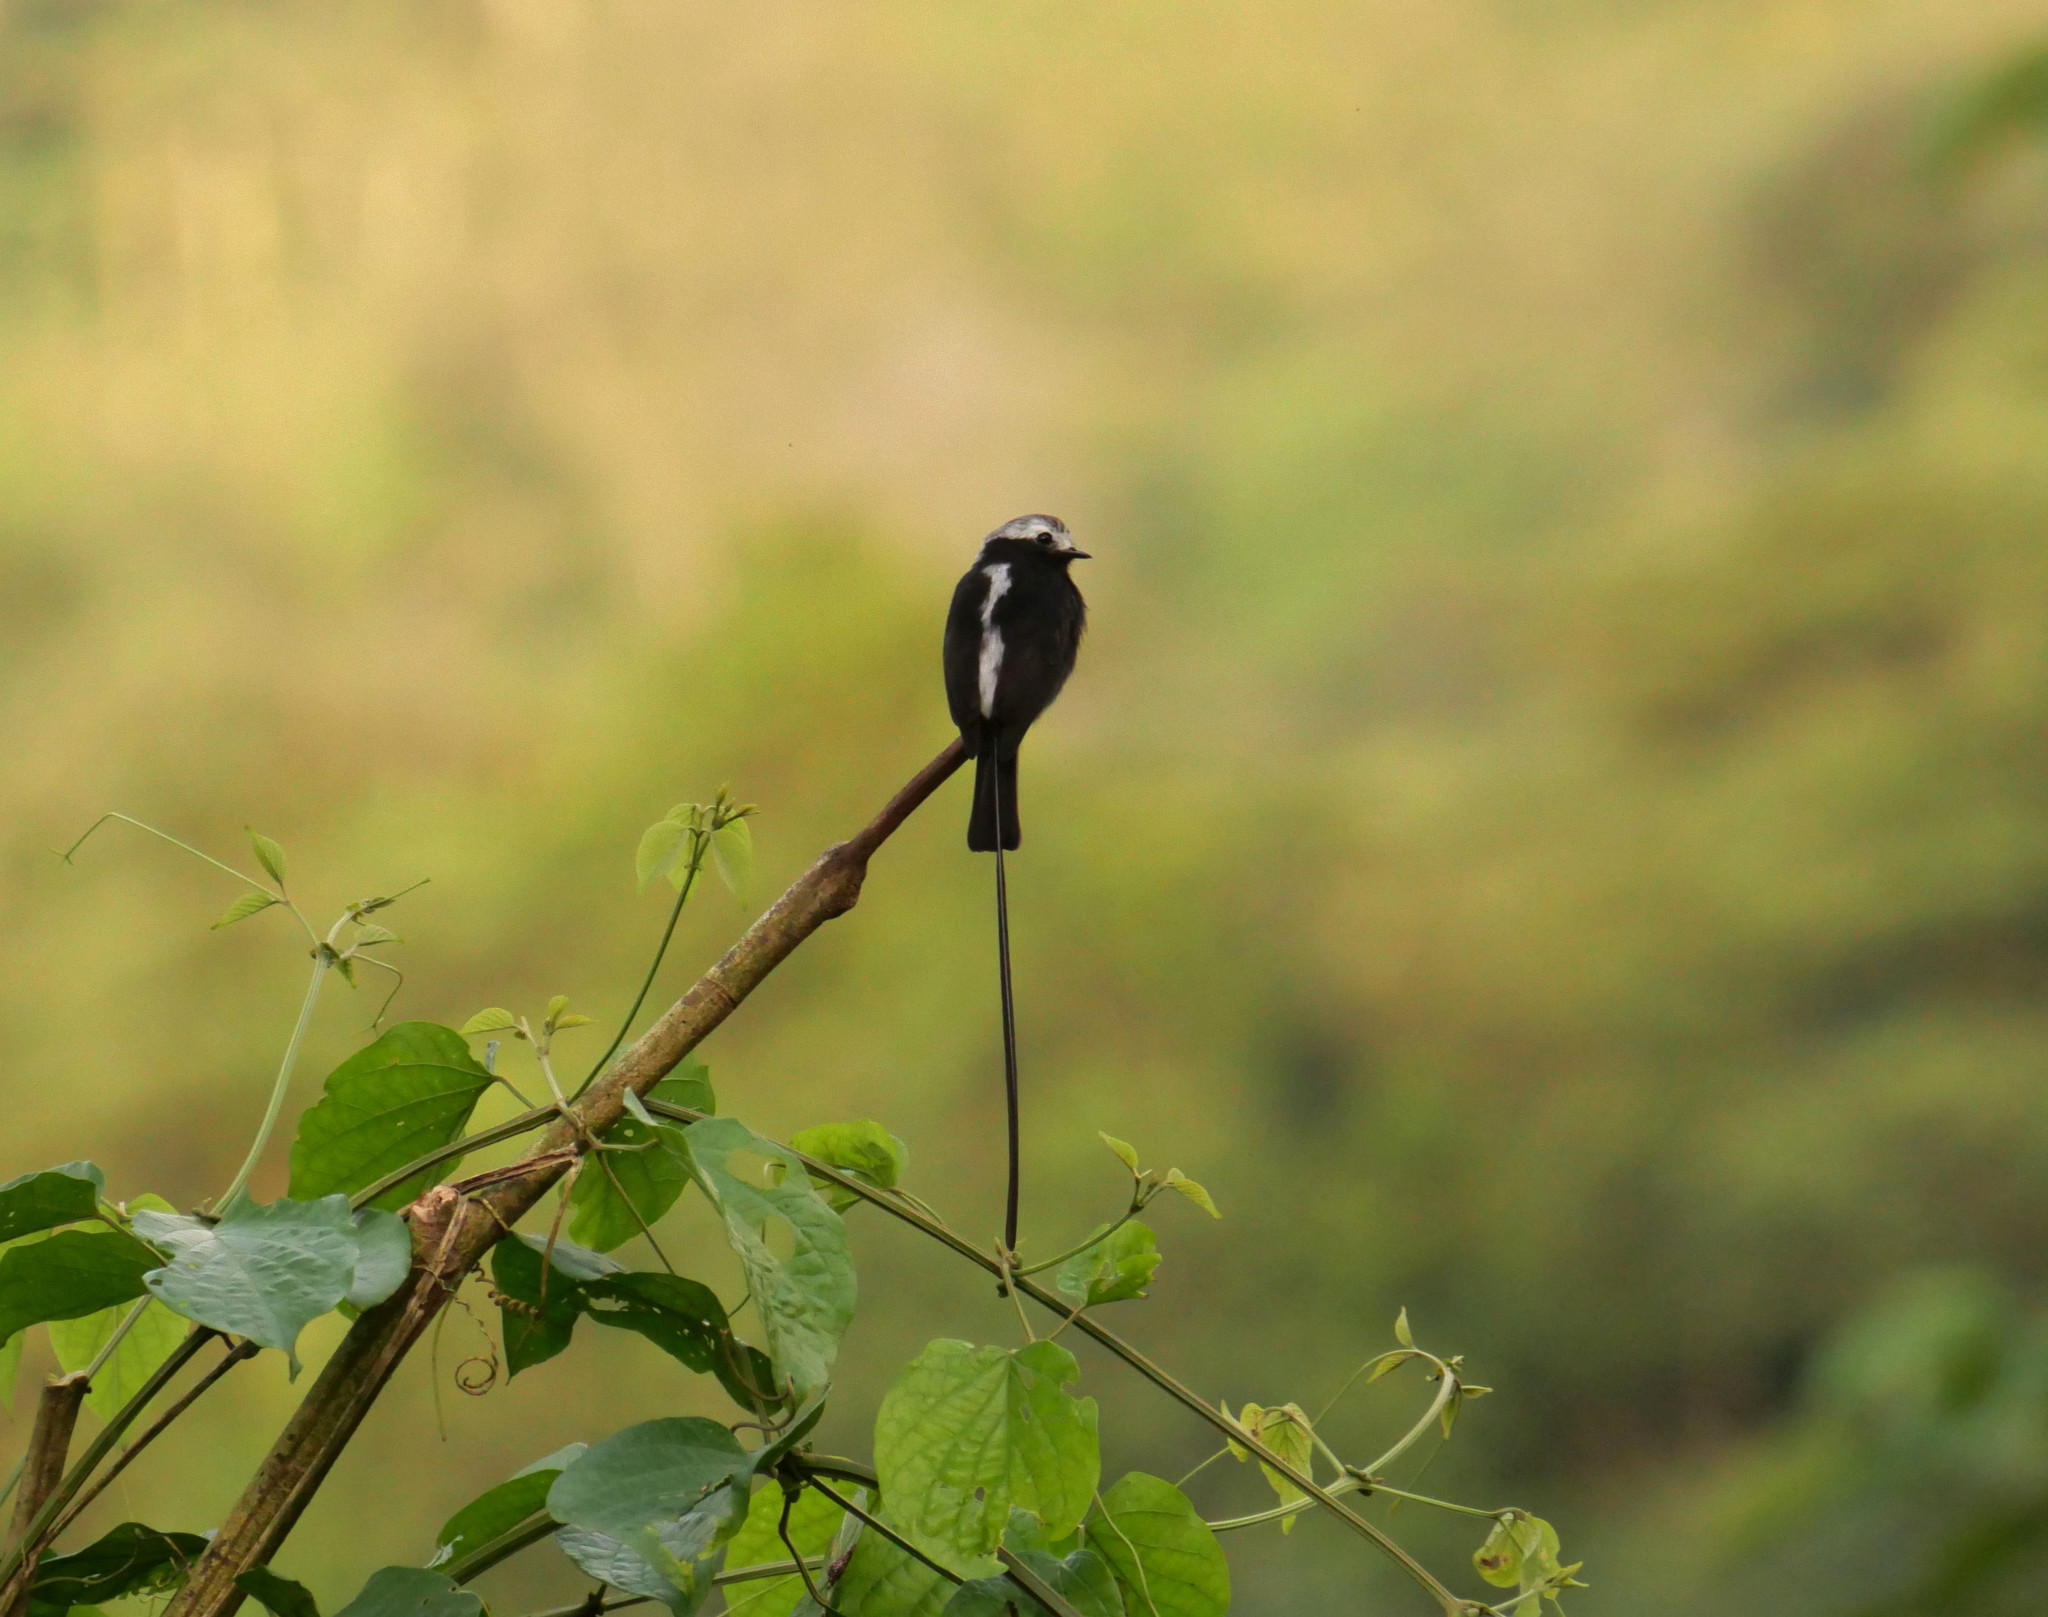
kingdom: Animalia
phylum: Chordata
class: Aves
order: Passeriformes
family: Tyrannidae
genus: Colonia
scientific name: Colonia colonus
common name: Long-tailed tyrant
